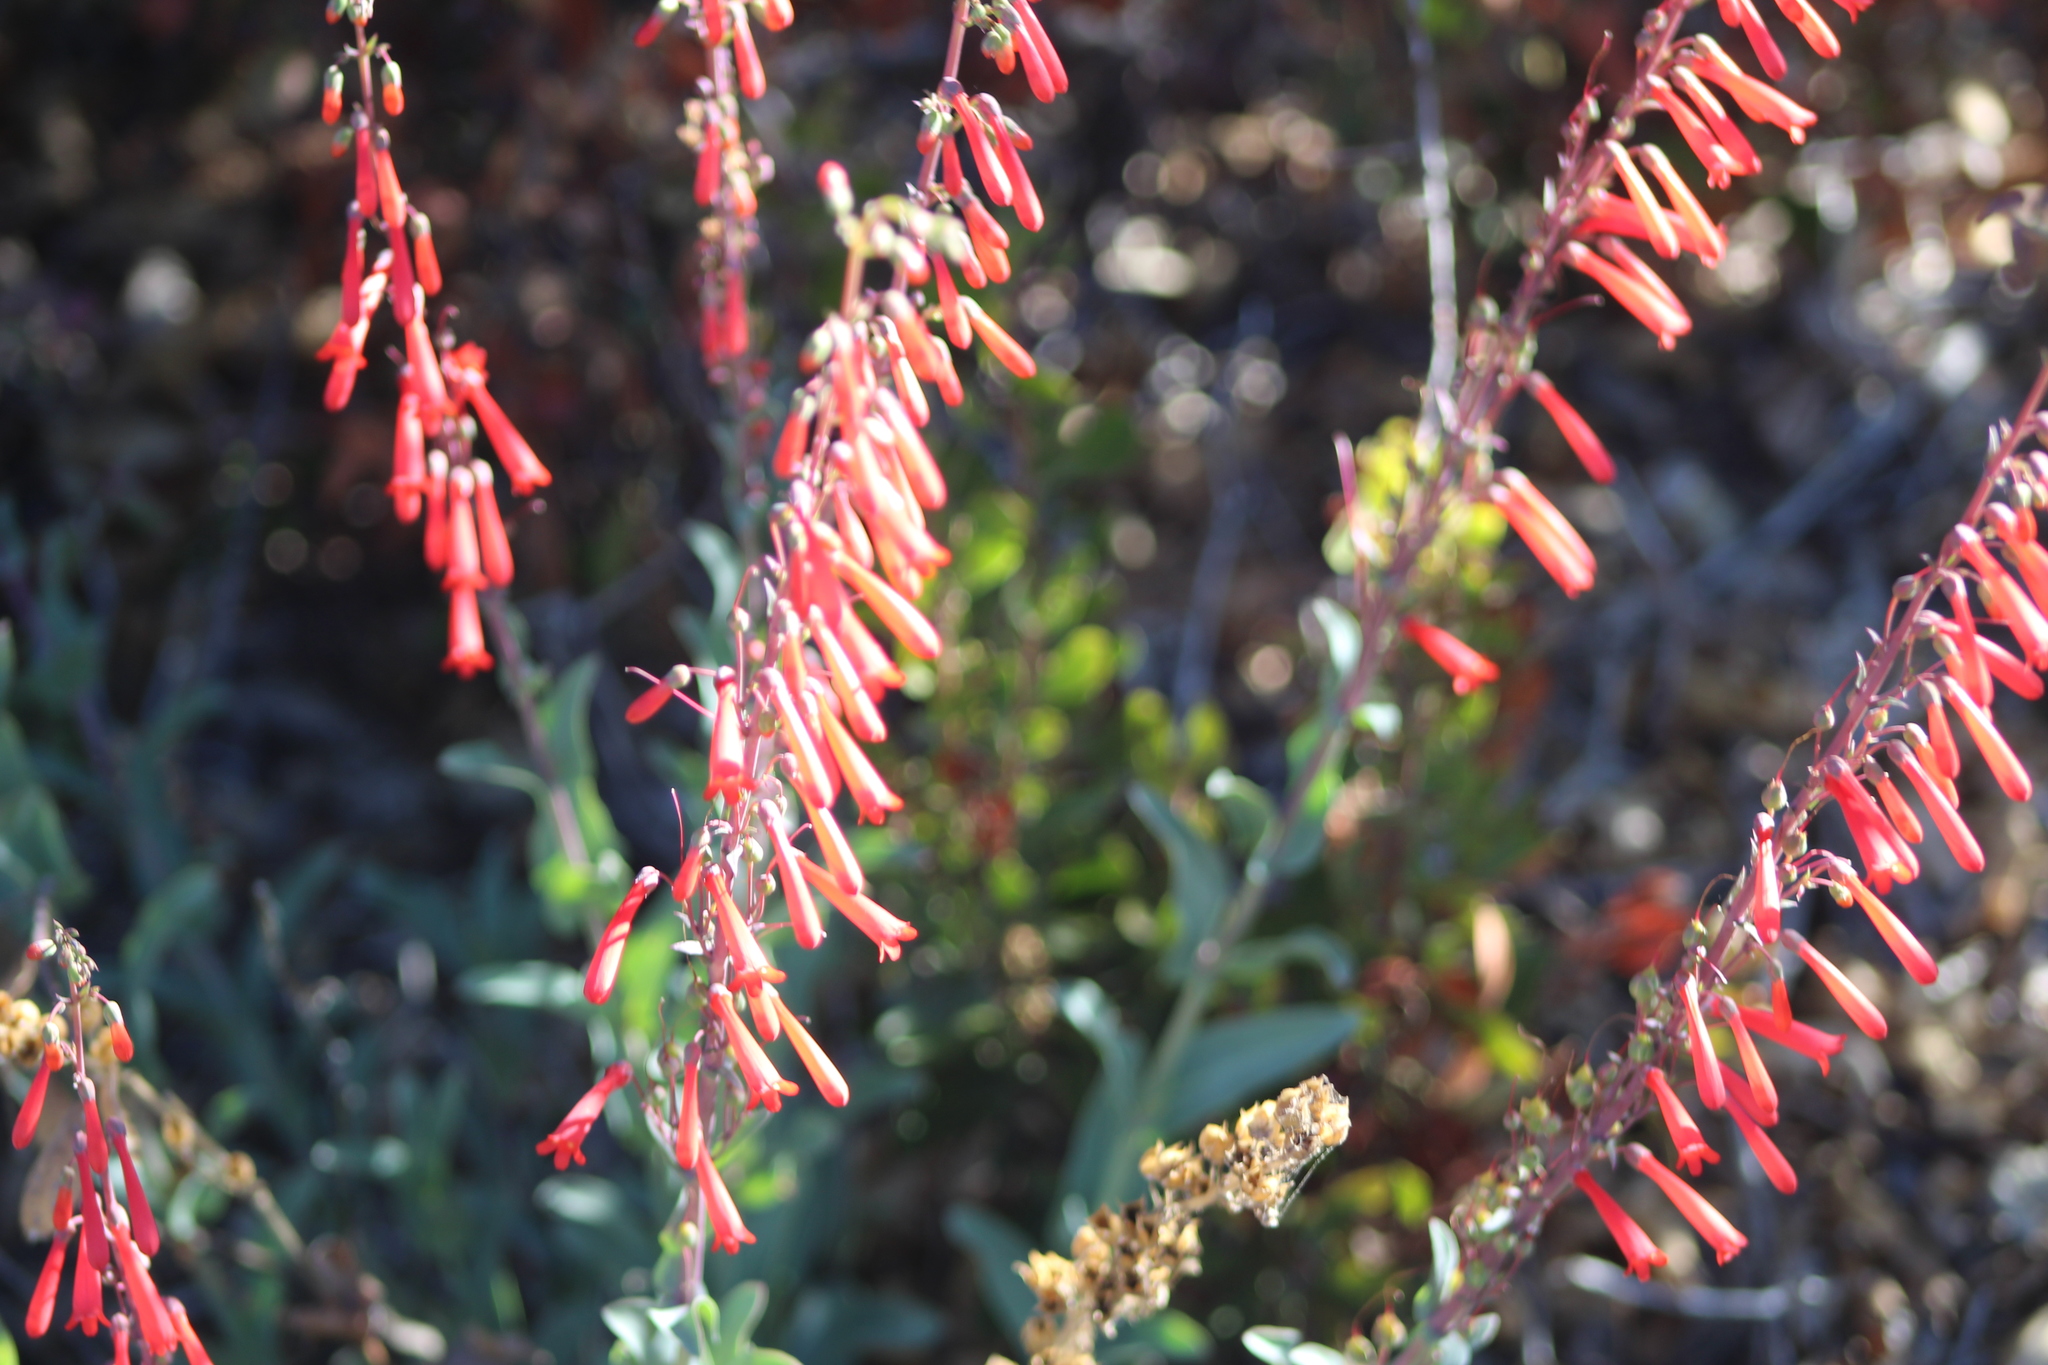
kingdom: Plantae
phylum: Tracheophyta
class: Magnoliopsida
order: Lamiales
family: Plantaginaceae
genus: Penstemon
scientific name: Penstemon centranthifolius
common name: Scarlet bugler
